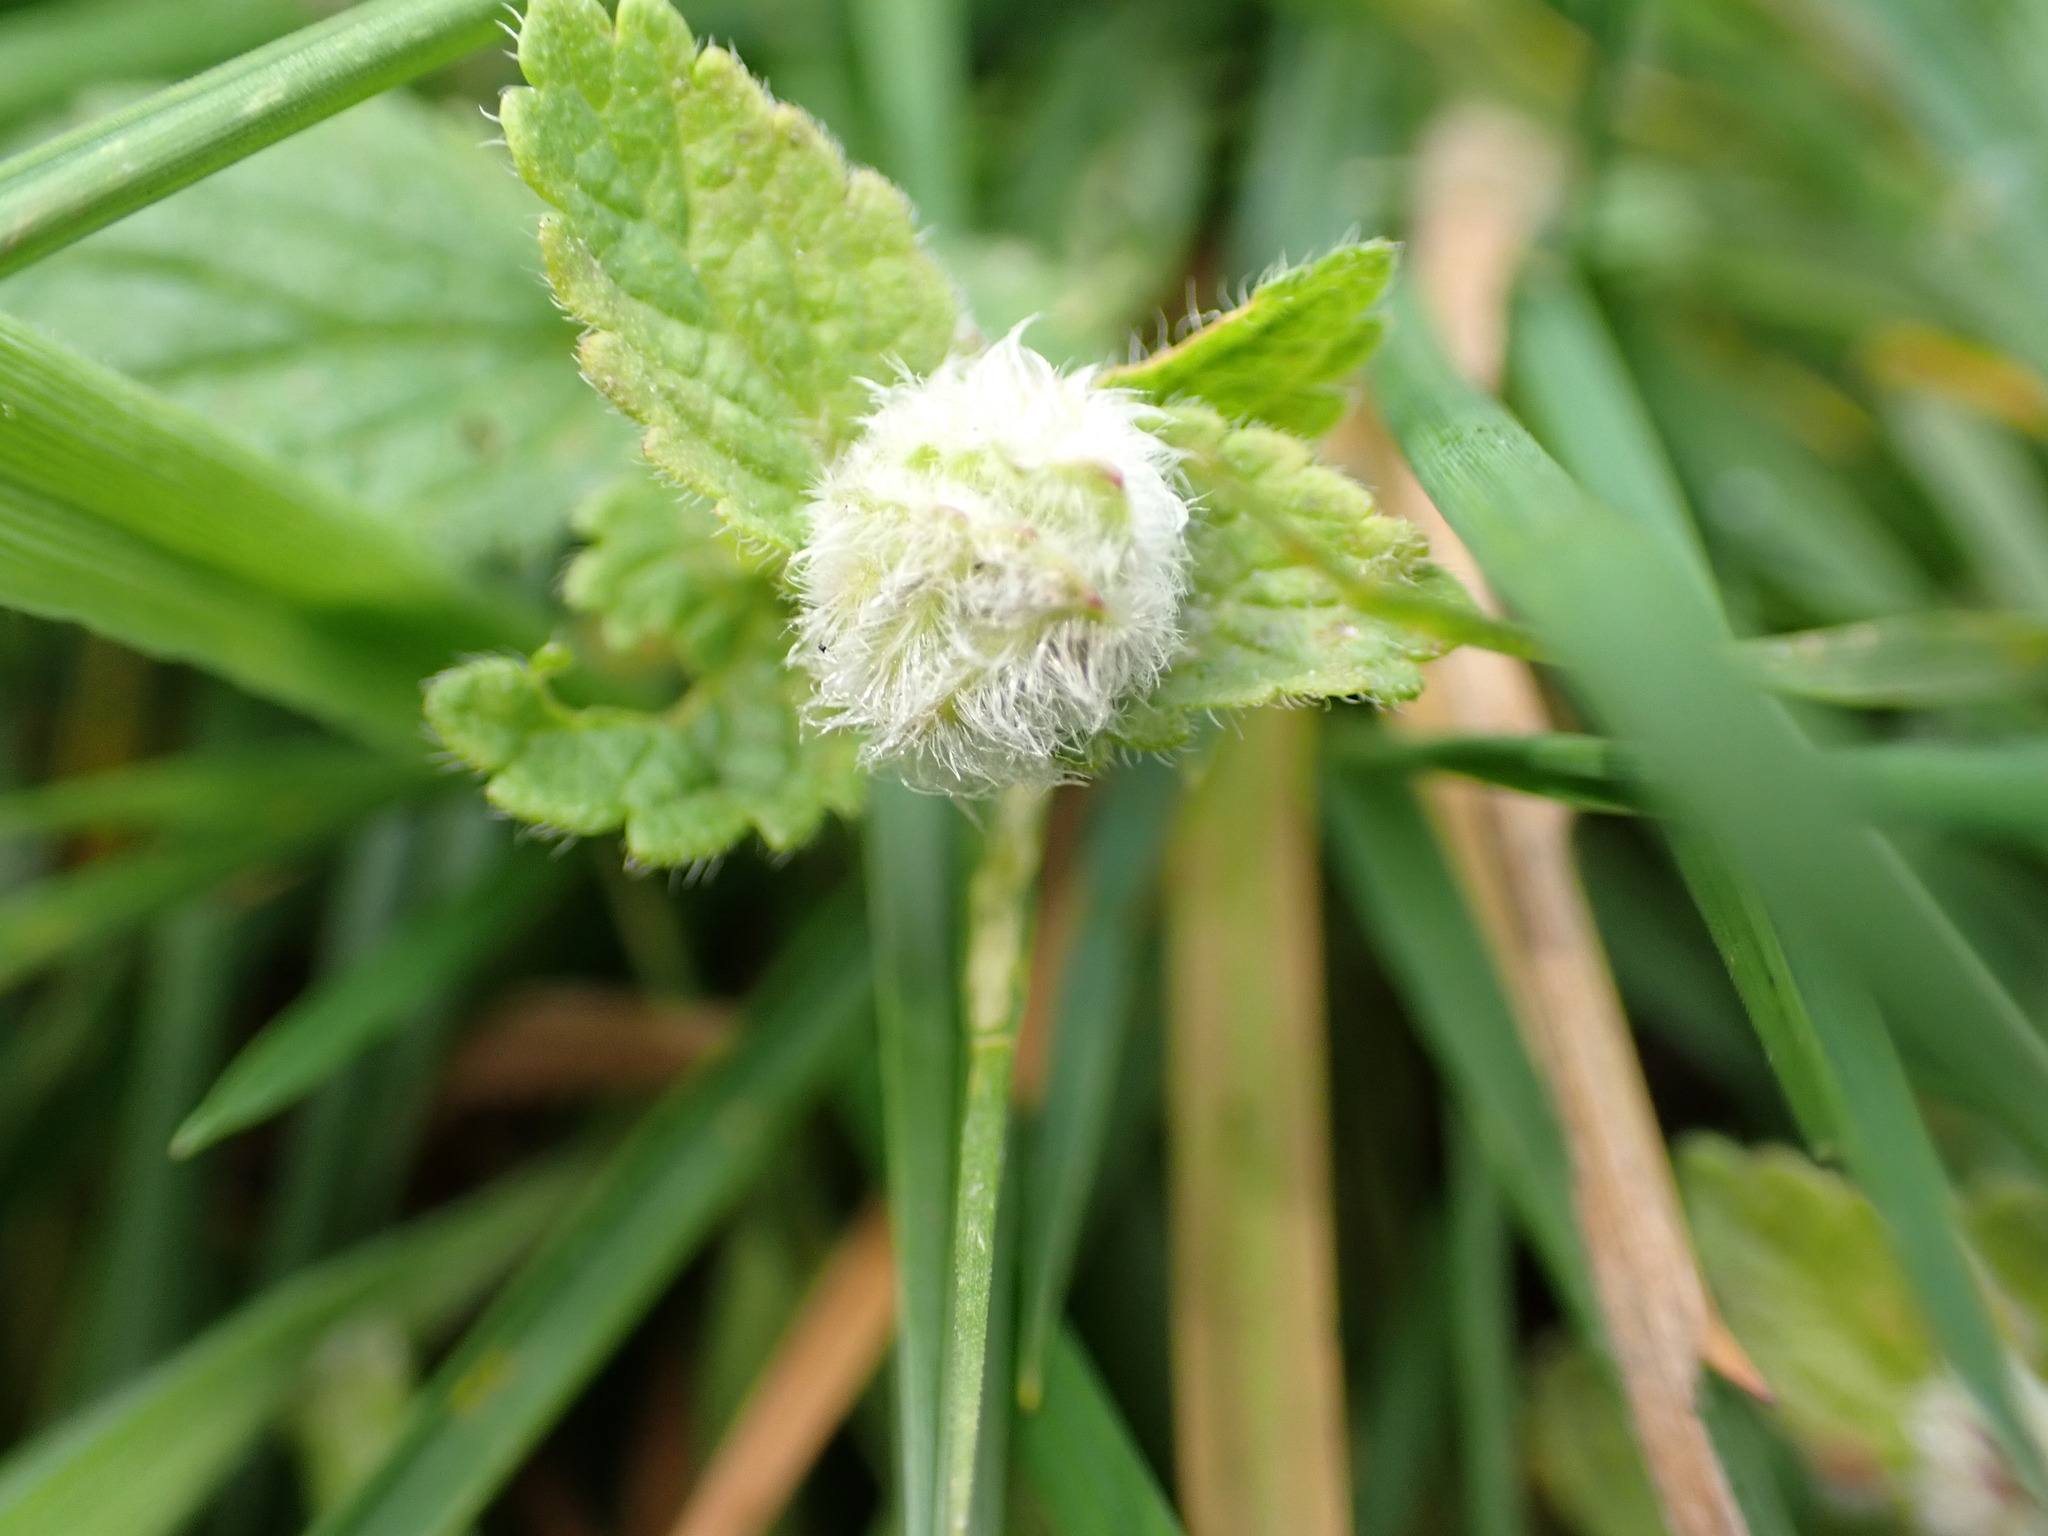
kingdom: Animalia
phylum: Arthropoda
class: Insecta
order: Diptera
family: Cecidomyiidae
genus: Jaapiella
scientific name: Jaapiella veronicae
